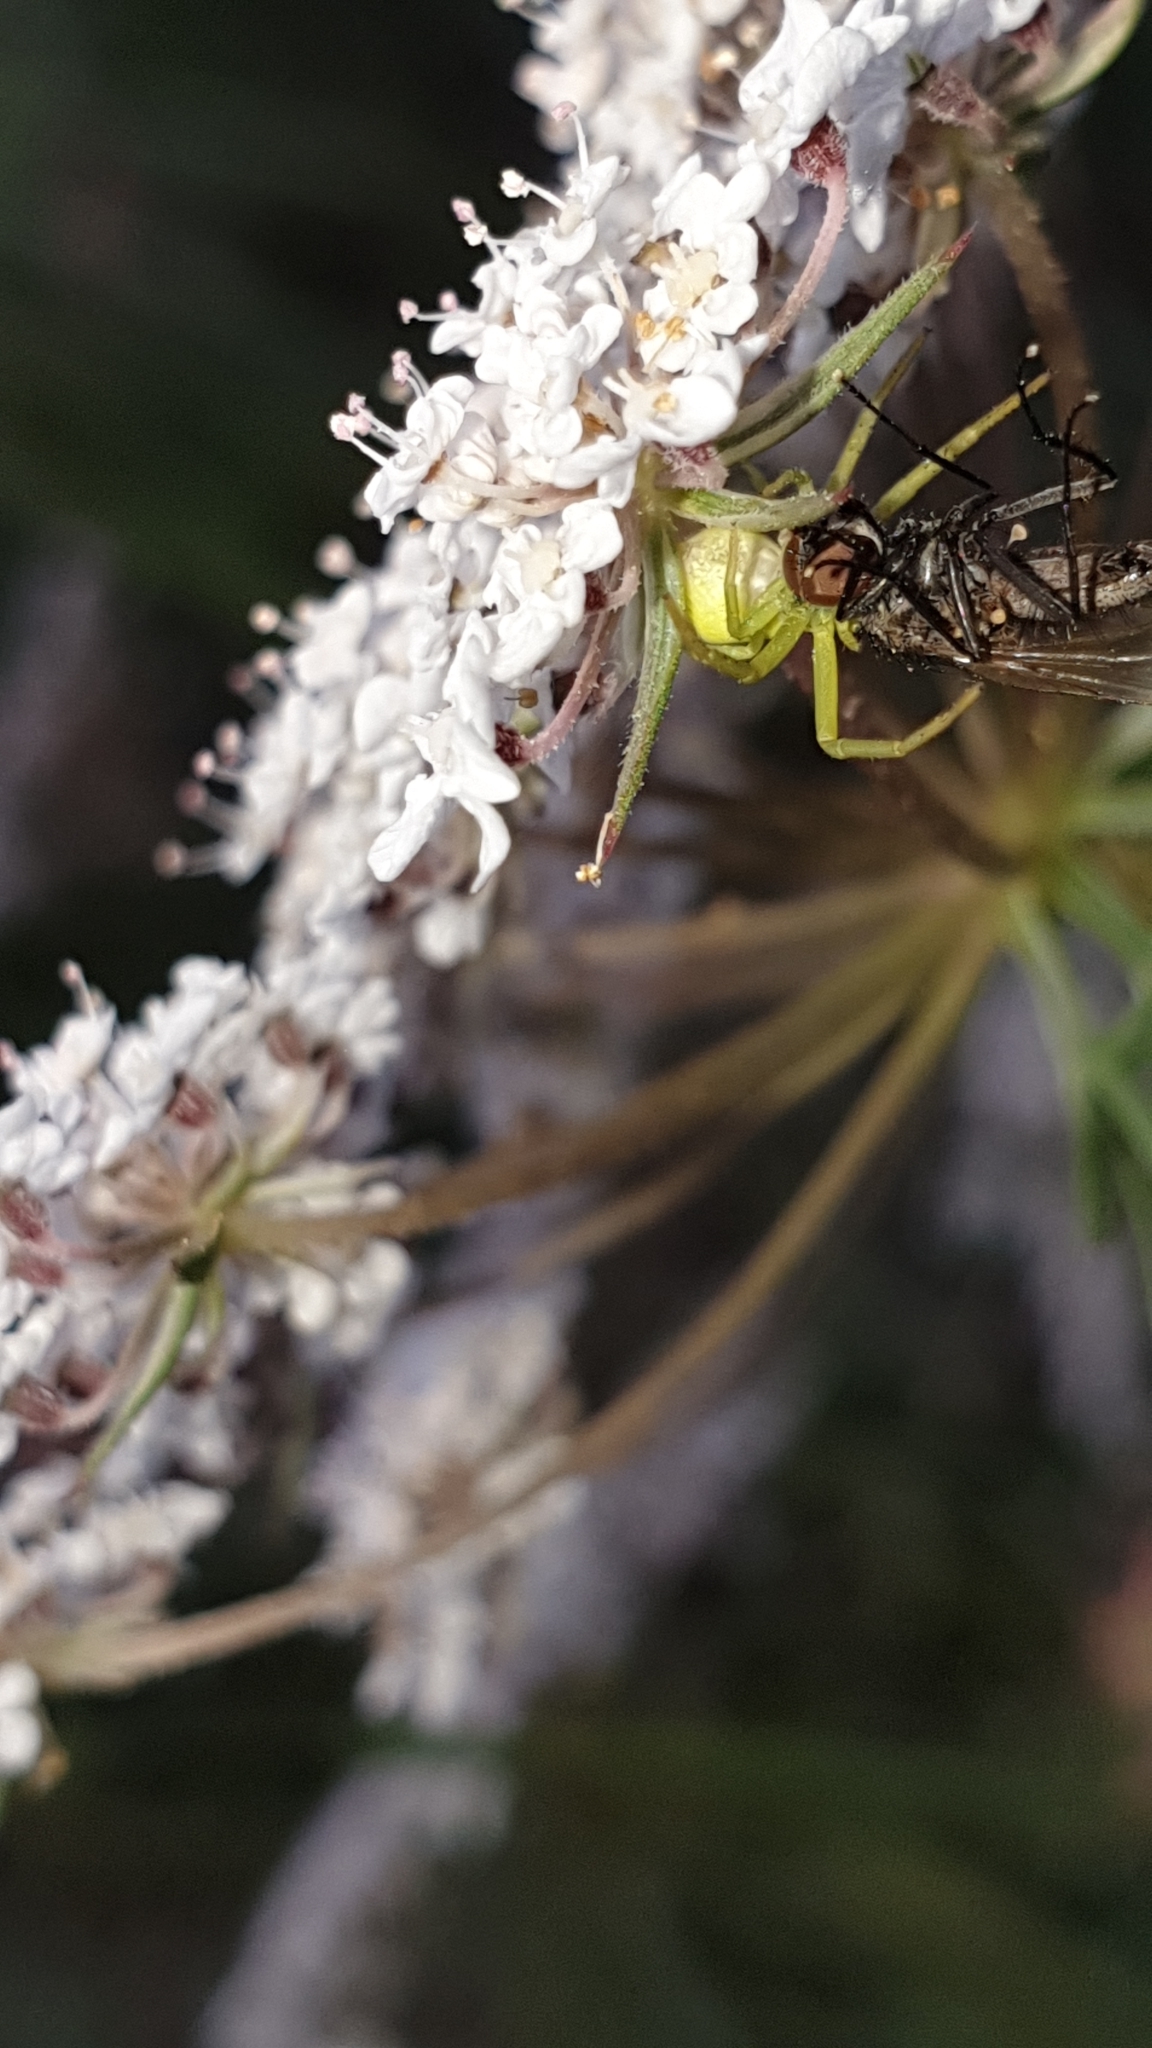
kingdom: Animalia
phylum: Arthropoda
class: Arachnida
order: Araneae
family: Thomisidae
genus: Ebrechtella
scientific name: Ebrechtella tricuspidata
